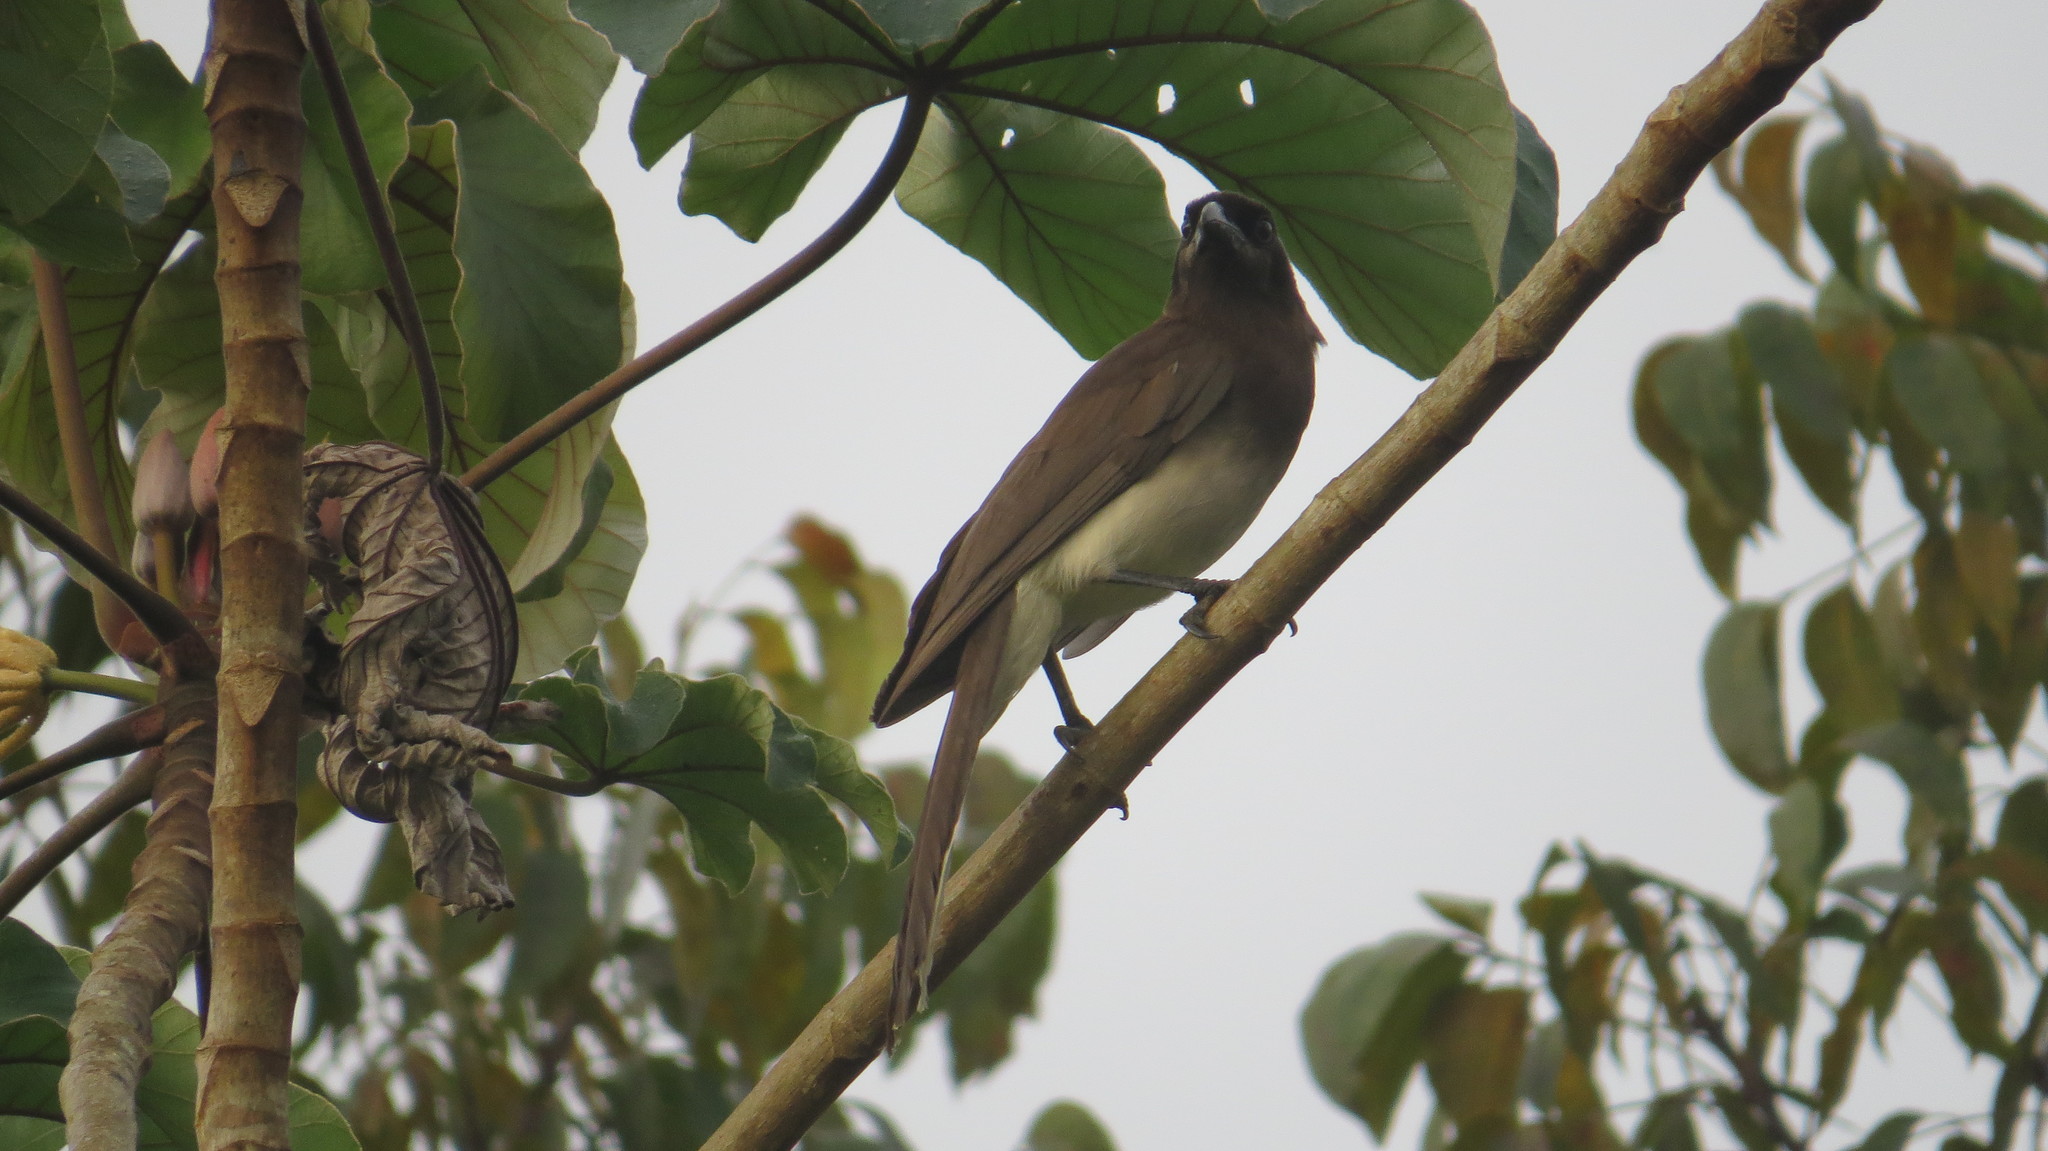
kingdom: Animalia
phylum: Chordata
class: Aves
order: Passeriformes
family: Corvidae
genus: Psilorhinus
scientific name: Psilorhinus morio
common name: Brown jay
